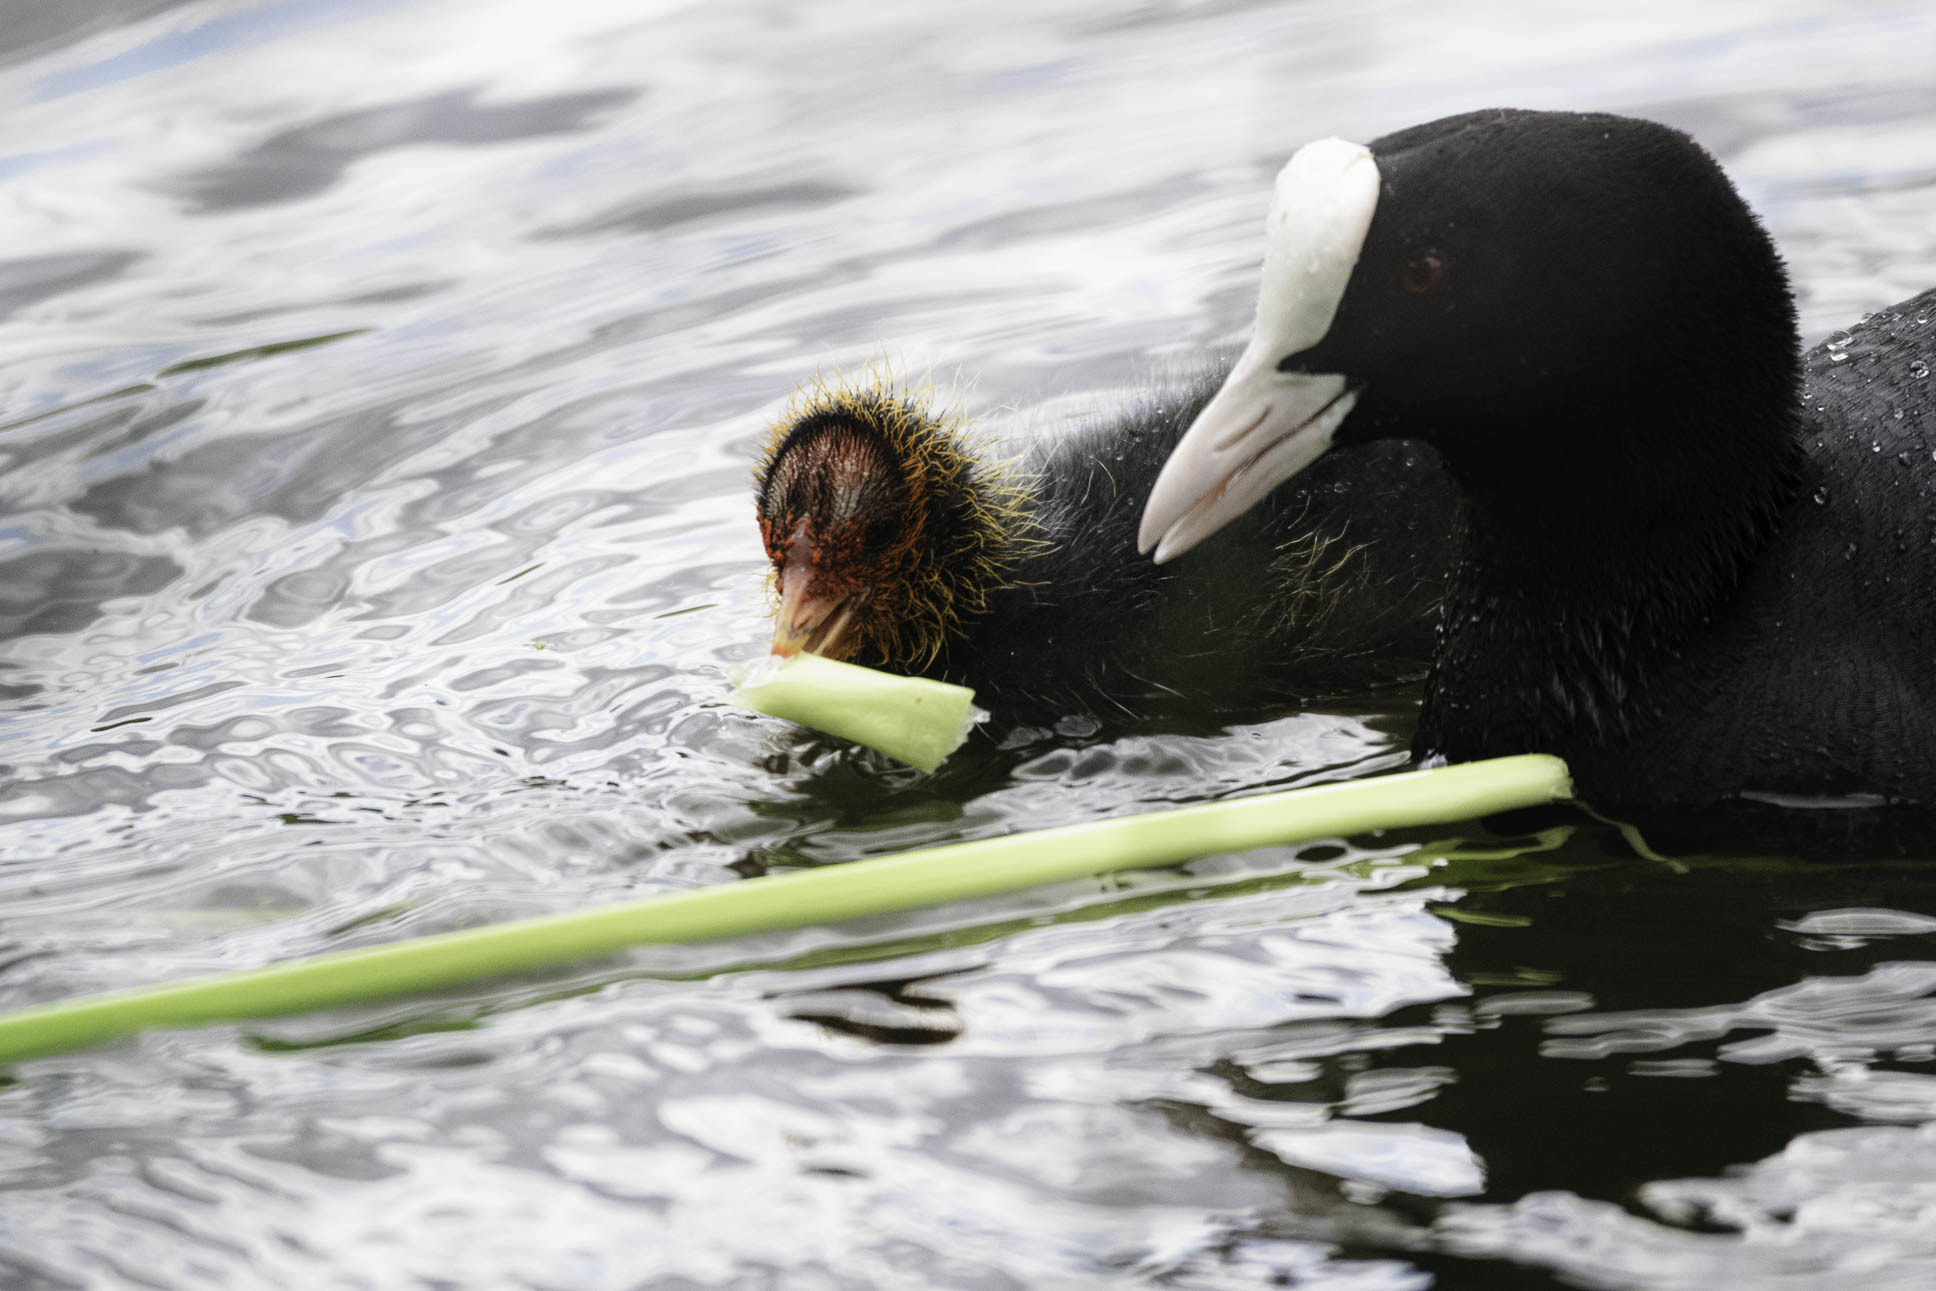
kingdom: Animalia
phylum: Chordata
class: Aves
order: Gruiformes
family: Rallidae
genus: Fulica
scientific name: Fulica atra
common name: Eurasian coot
